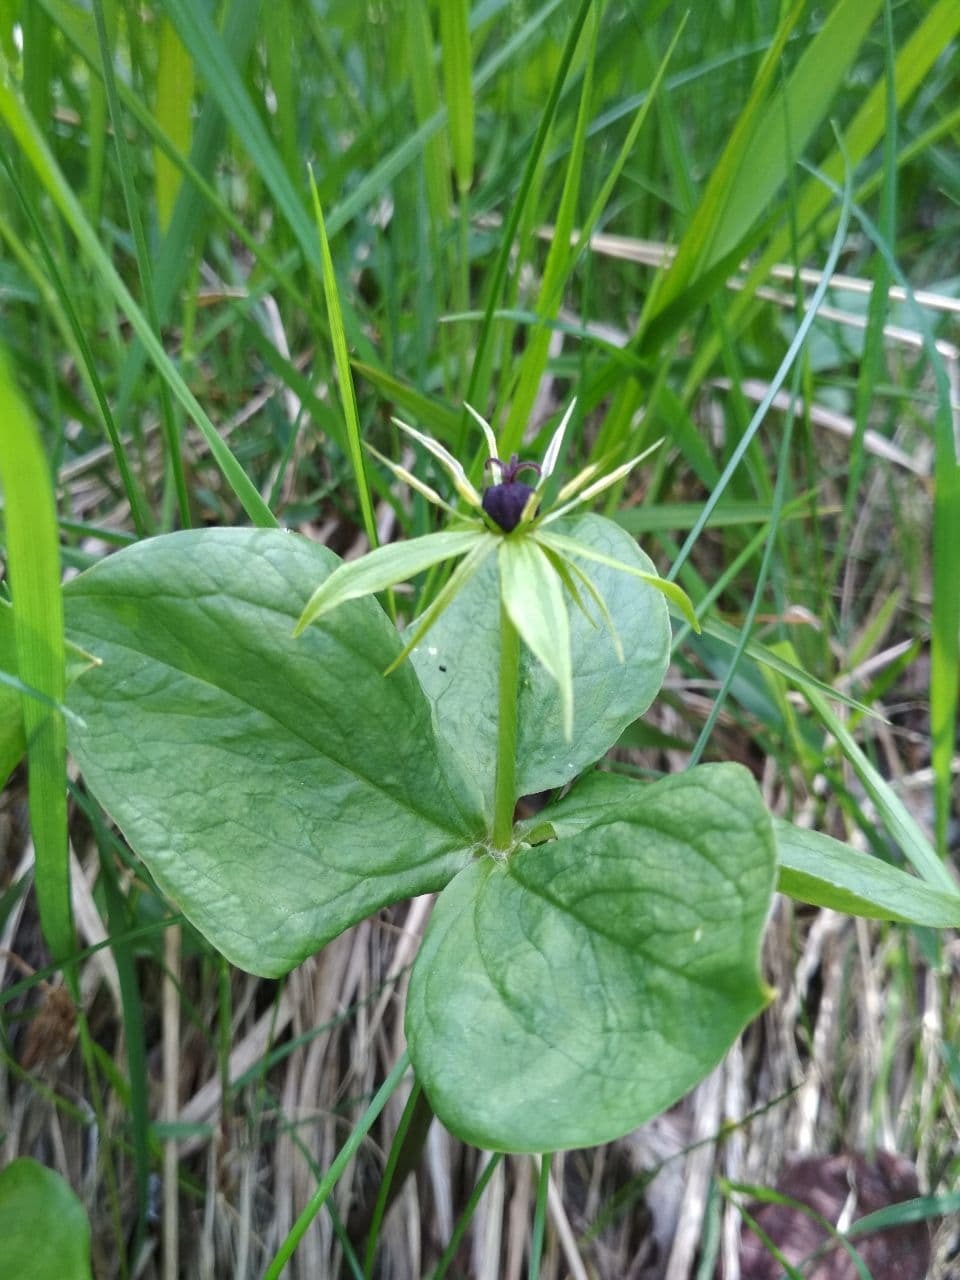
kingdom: Plantae
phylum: Tracheophyta
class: Liliopsida
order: Liliales
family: Melanthiaceae
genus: Paris
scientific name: Paris quadrifolia
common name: Herb-paris
